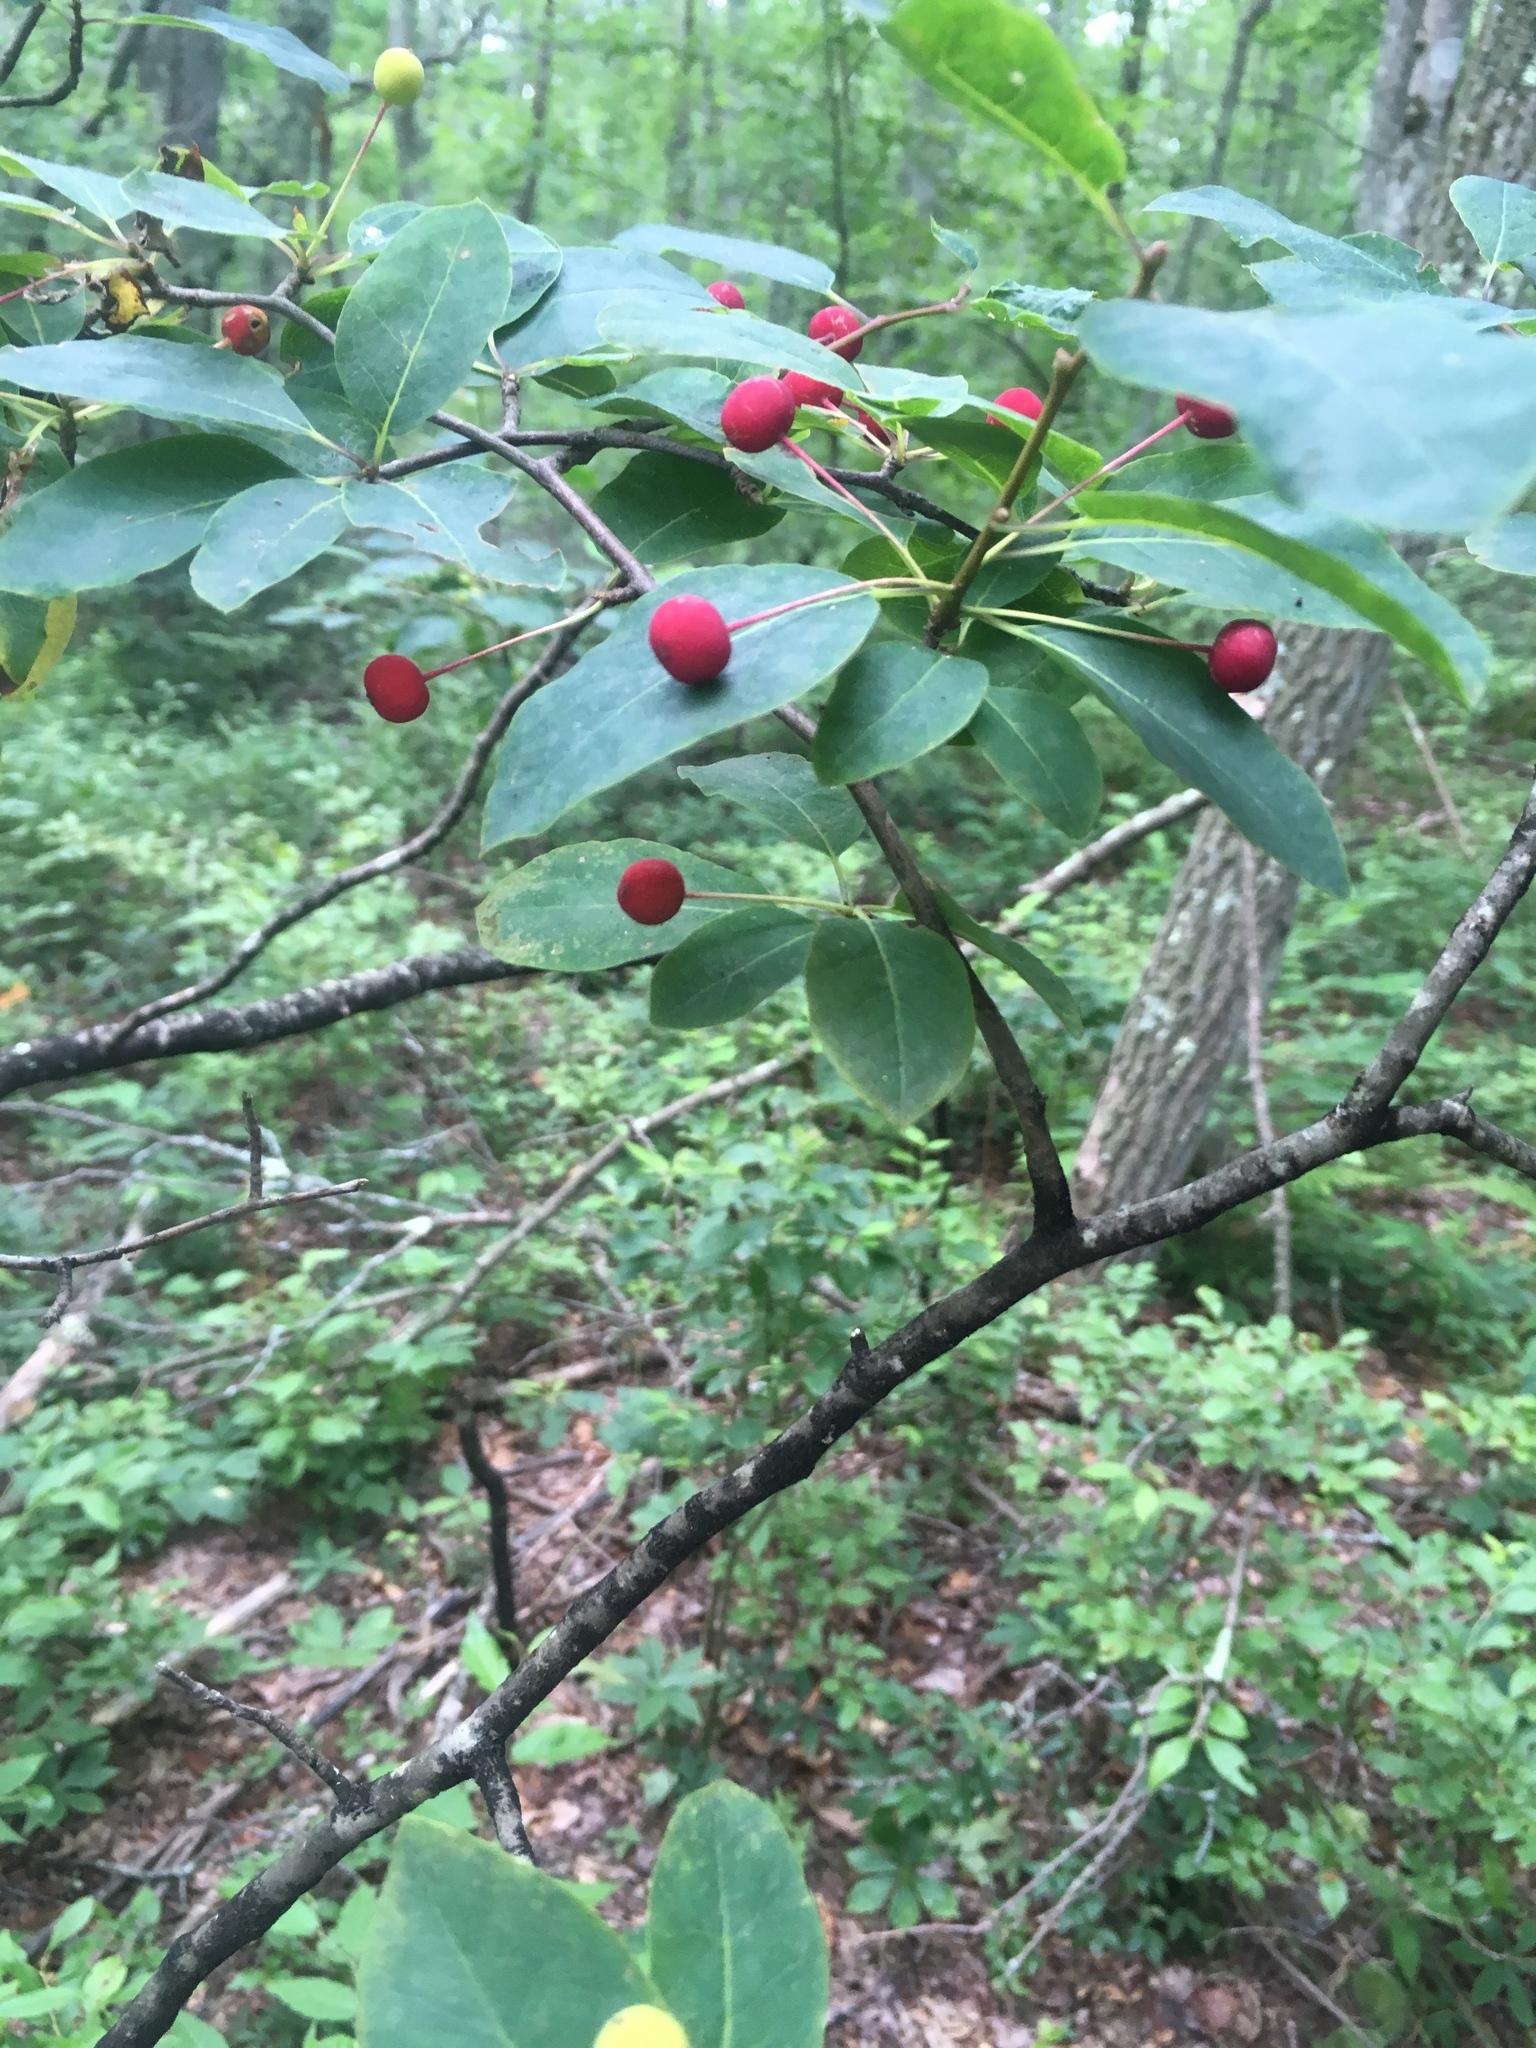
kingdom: Plantae
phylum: Tracheophyta
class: Magnoliopsida
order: Aquifoliales
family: Aquifoliaceae
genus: Ilex
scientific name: Ilex mucronata
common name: Catberry
